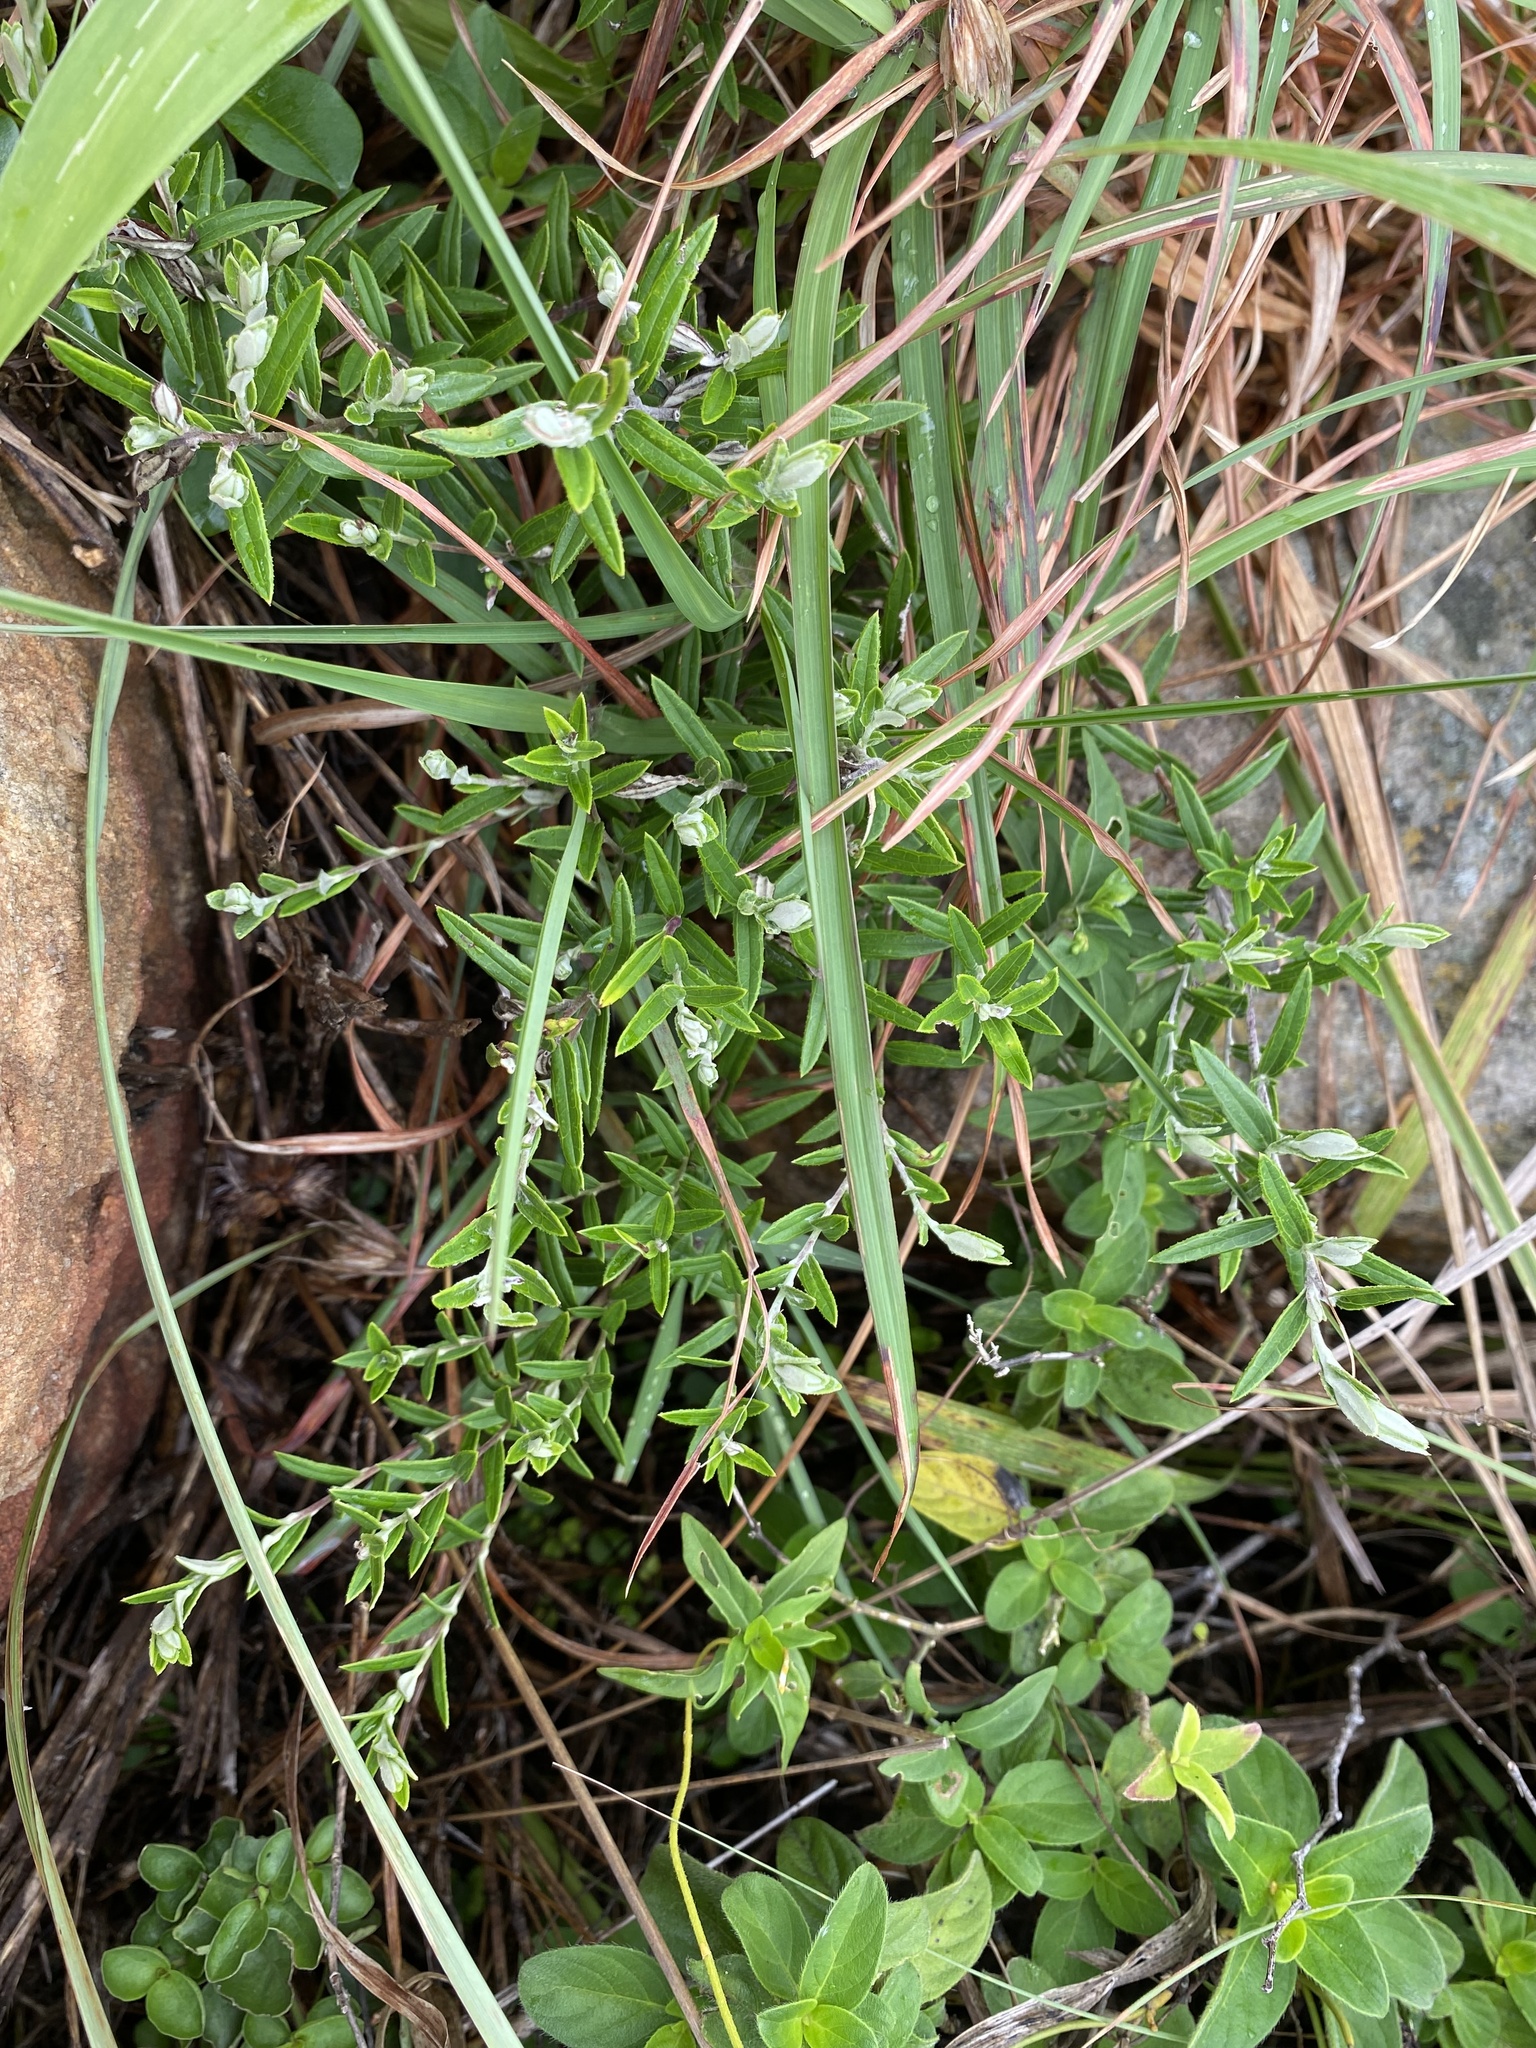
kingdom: Plantae
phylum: Tracheophyta
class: Magnoliopsida
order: Asterales
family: Asteraceae
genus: Athrixia
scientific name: Athrixia phylicoides
